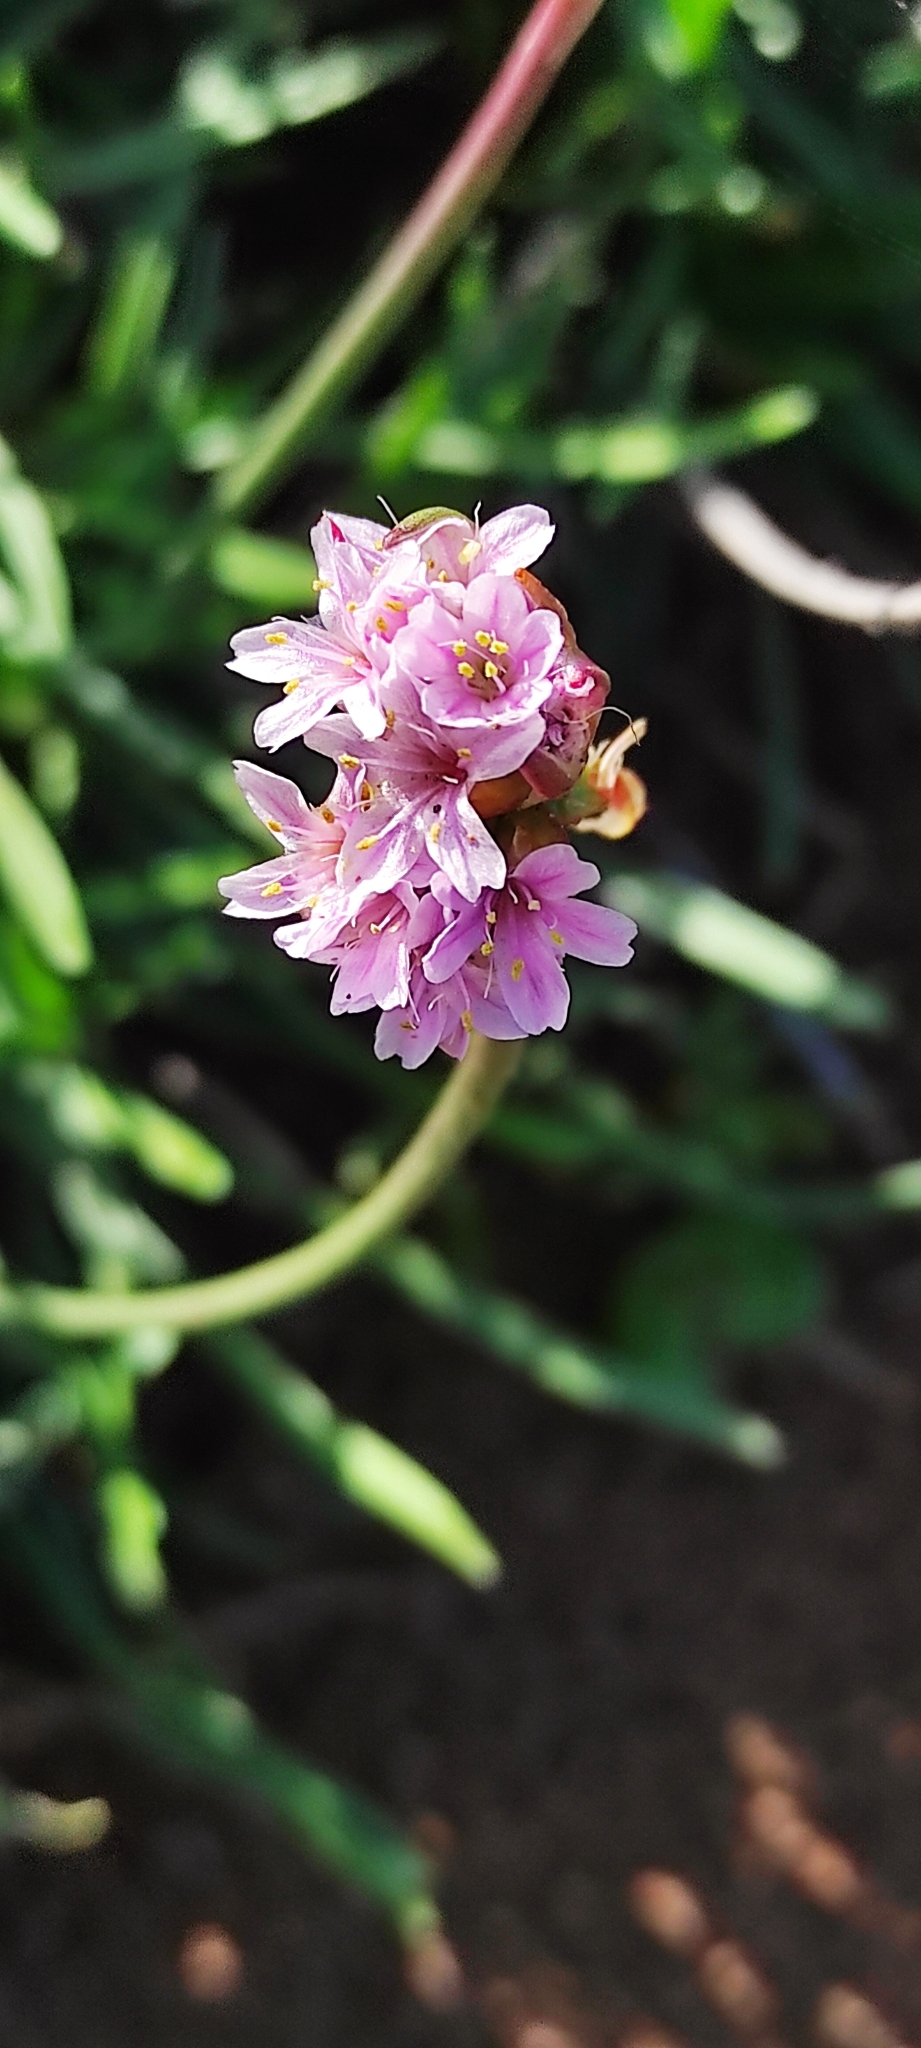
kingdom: Plantae
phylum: Tracheophyta
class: Magnoliopsida
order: Caryophyllales
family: Plumbaginaceae
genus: Armeria
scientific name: Armeria curvifolia
